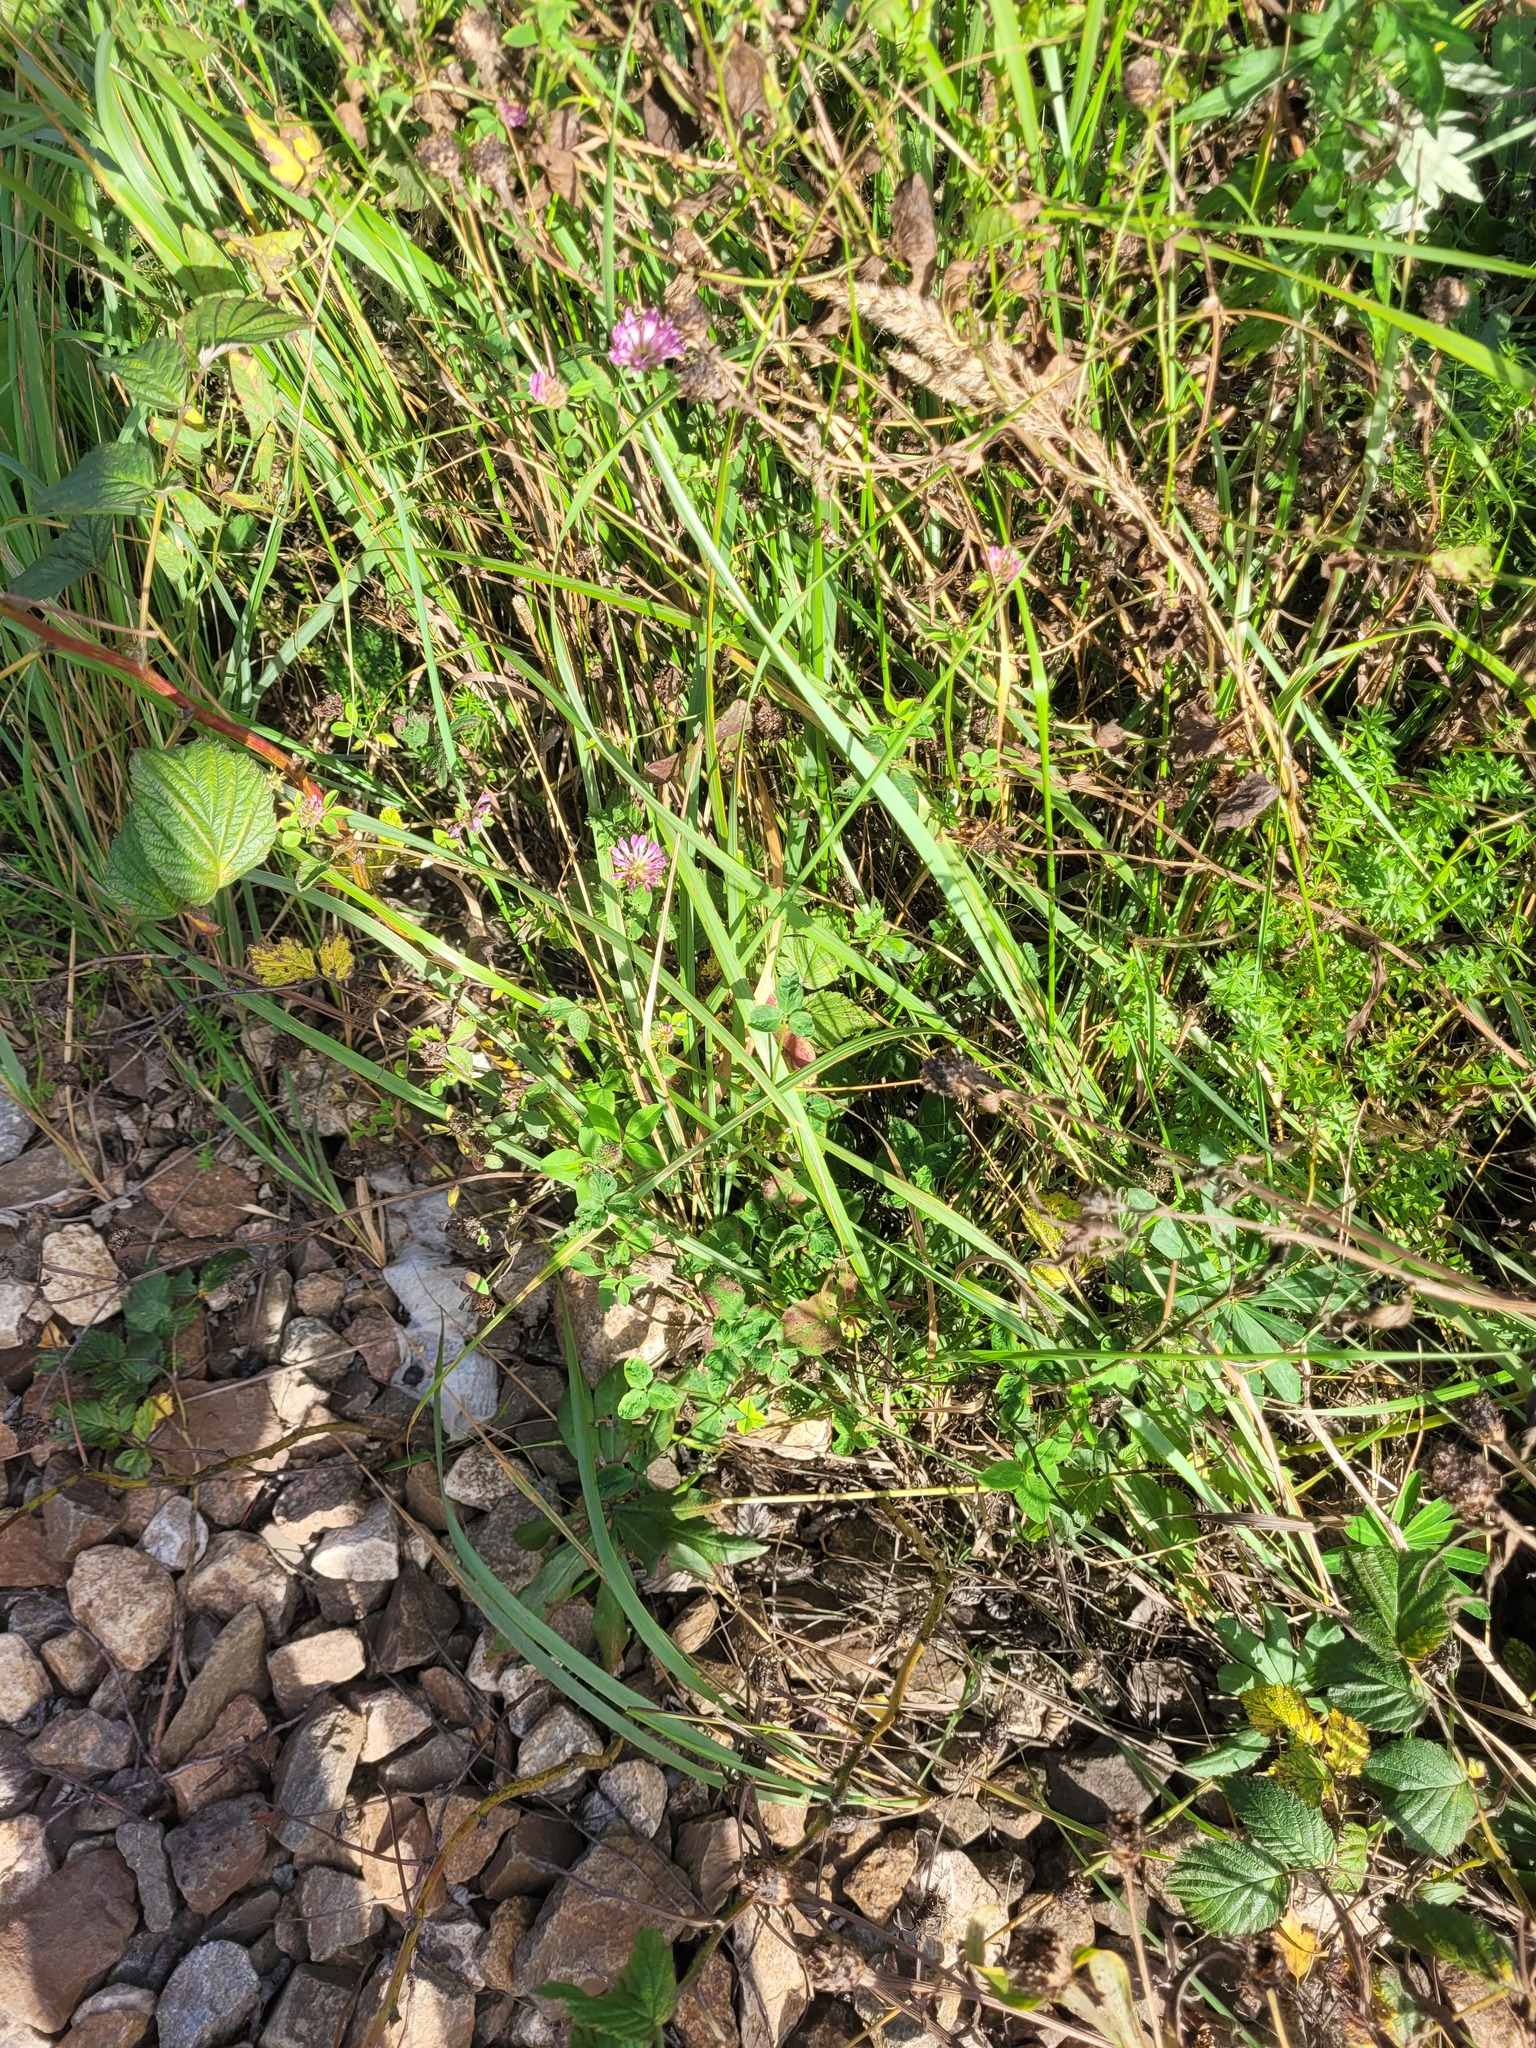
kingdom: Plantae
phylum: Tracheophyta
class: Magnoliopsida
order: Fabales
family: Fabaceae
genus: Trifolium
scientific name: Trifolium pratense
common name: Red clover
